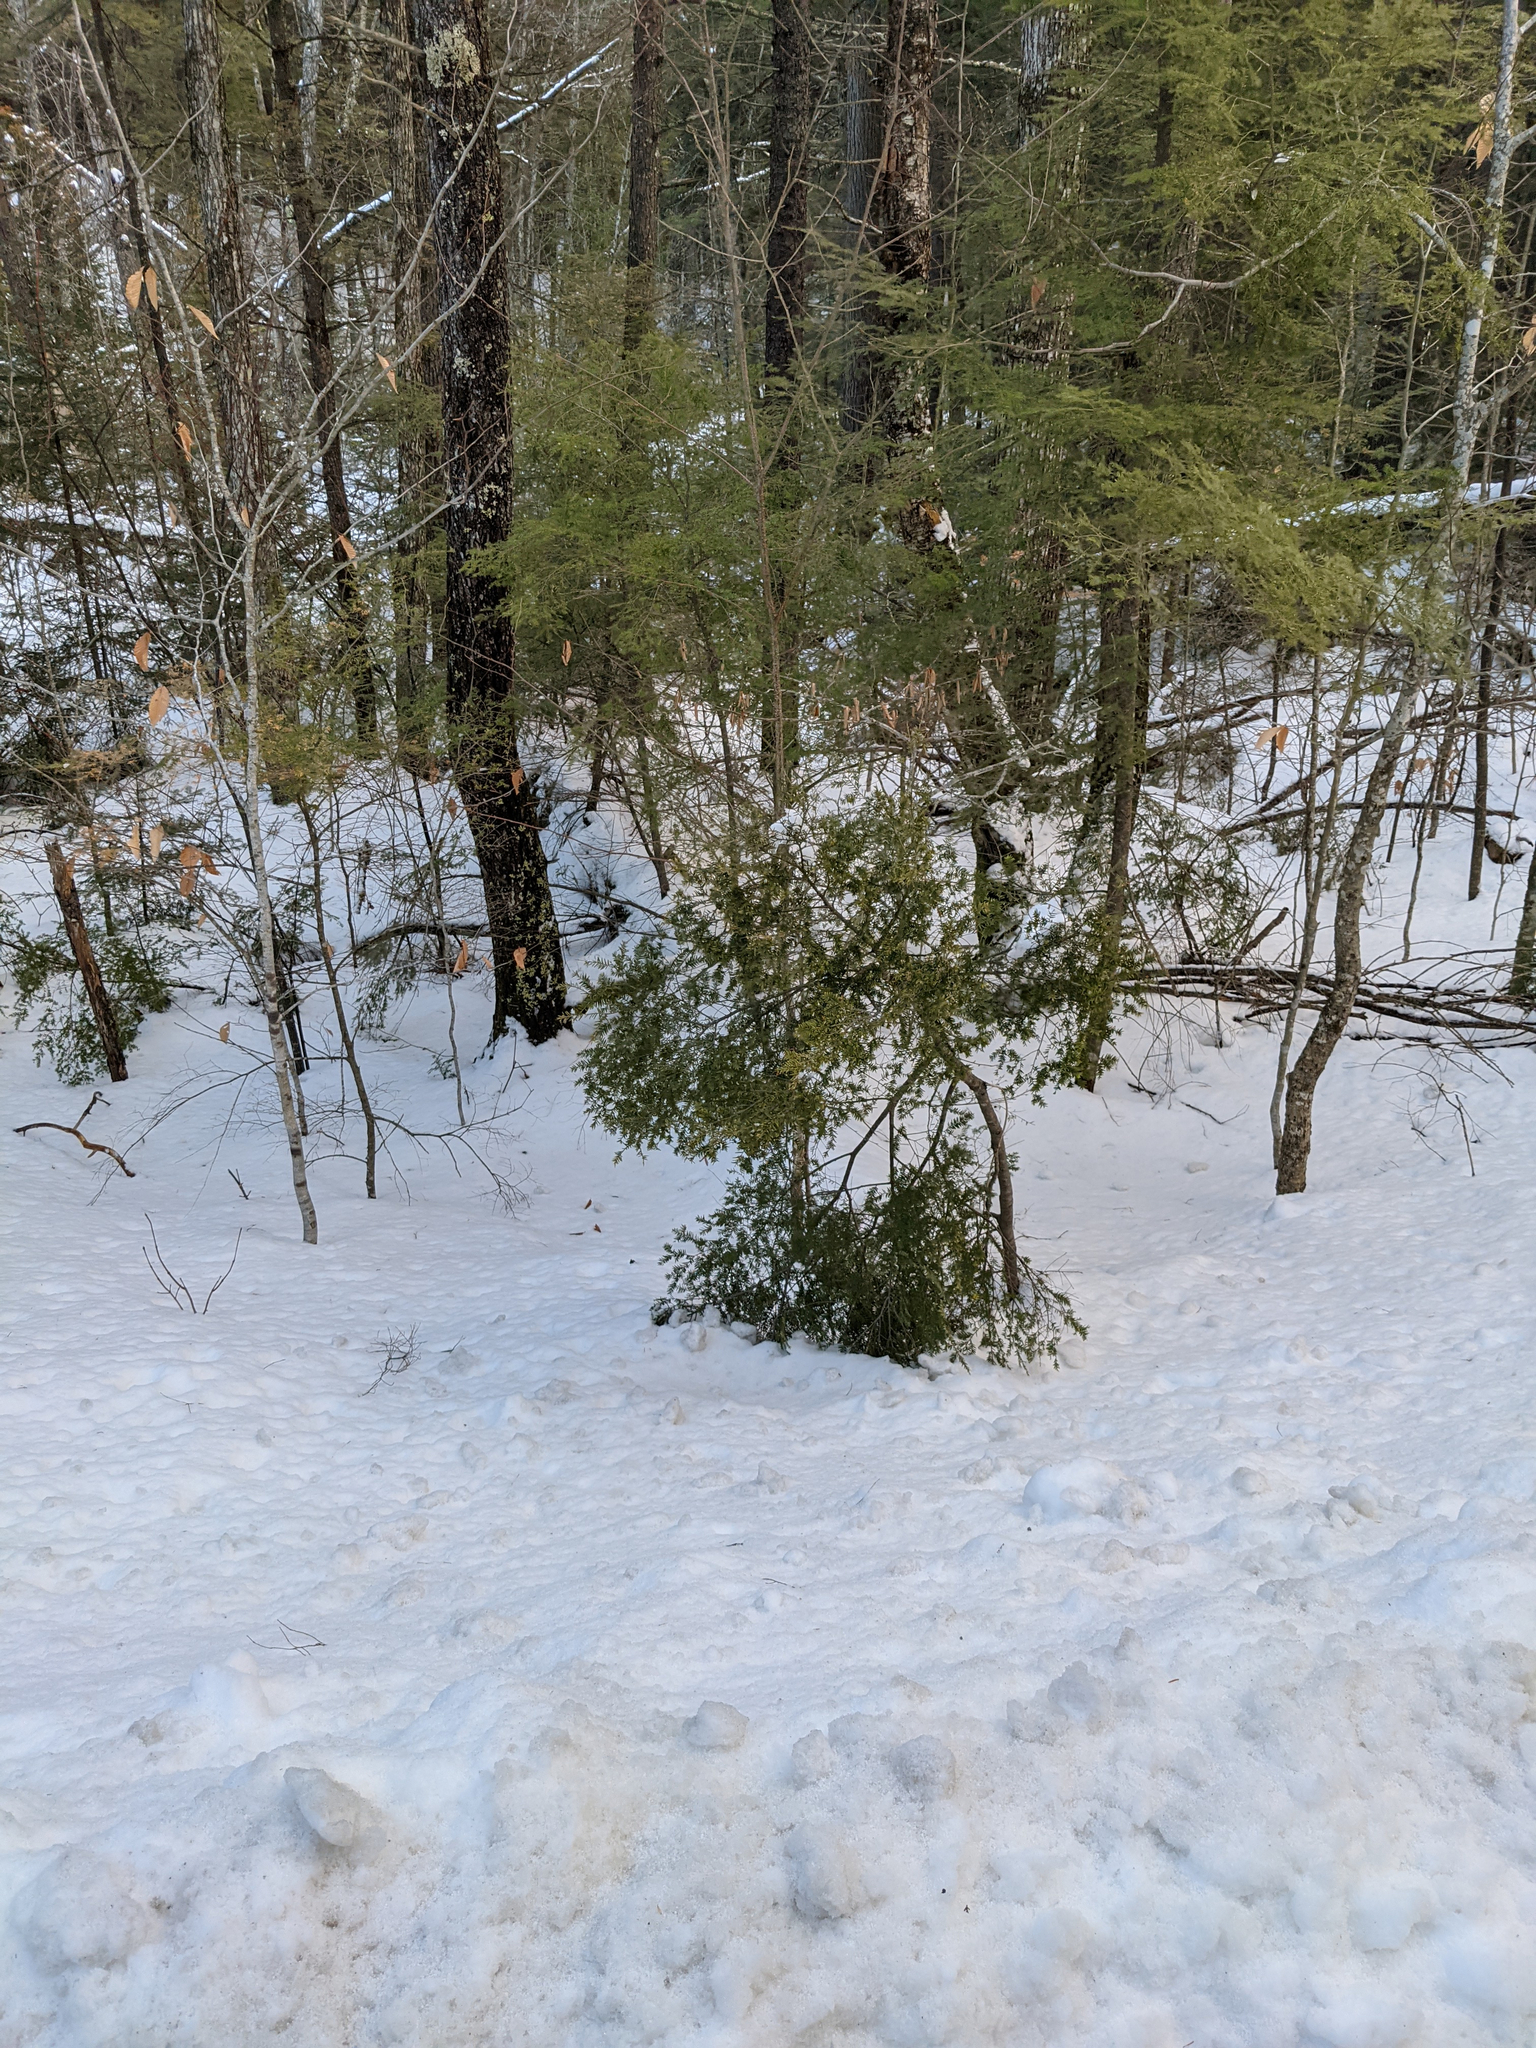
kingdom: Plantae
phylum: Tracheophyta
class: Pinopsida
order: Pinales
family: Pinaceae
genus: Tsuga
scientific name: Tsuga canadensis
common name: Eastern hemlock
